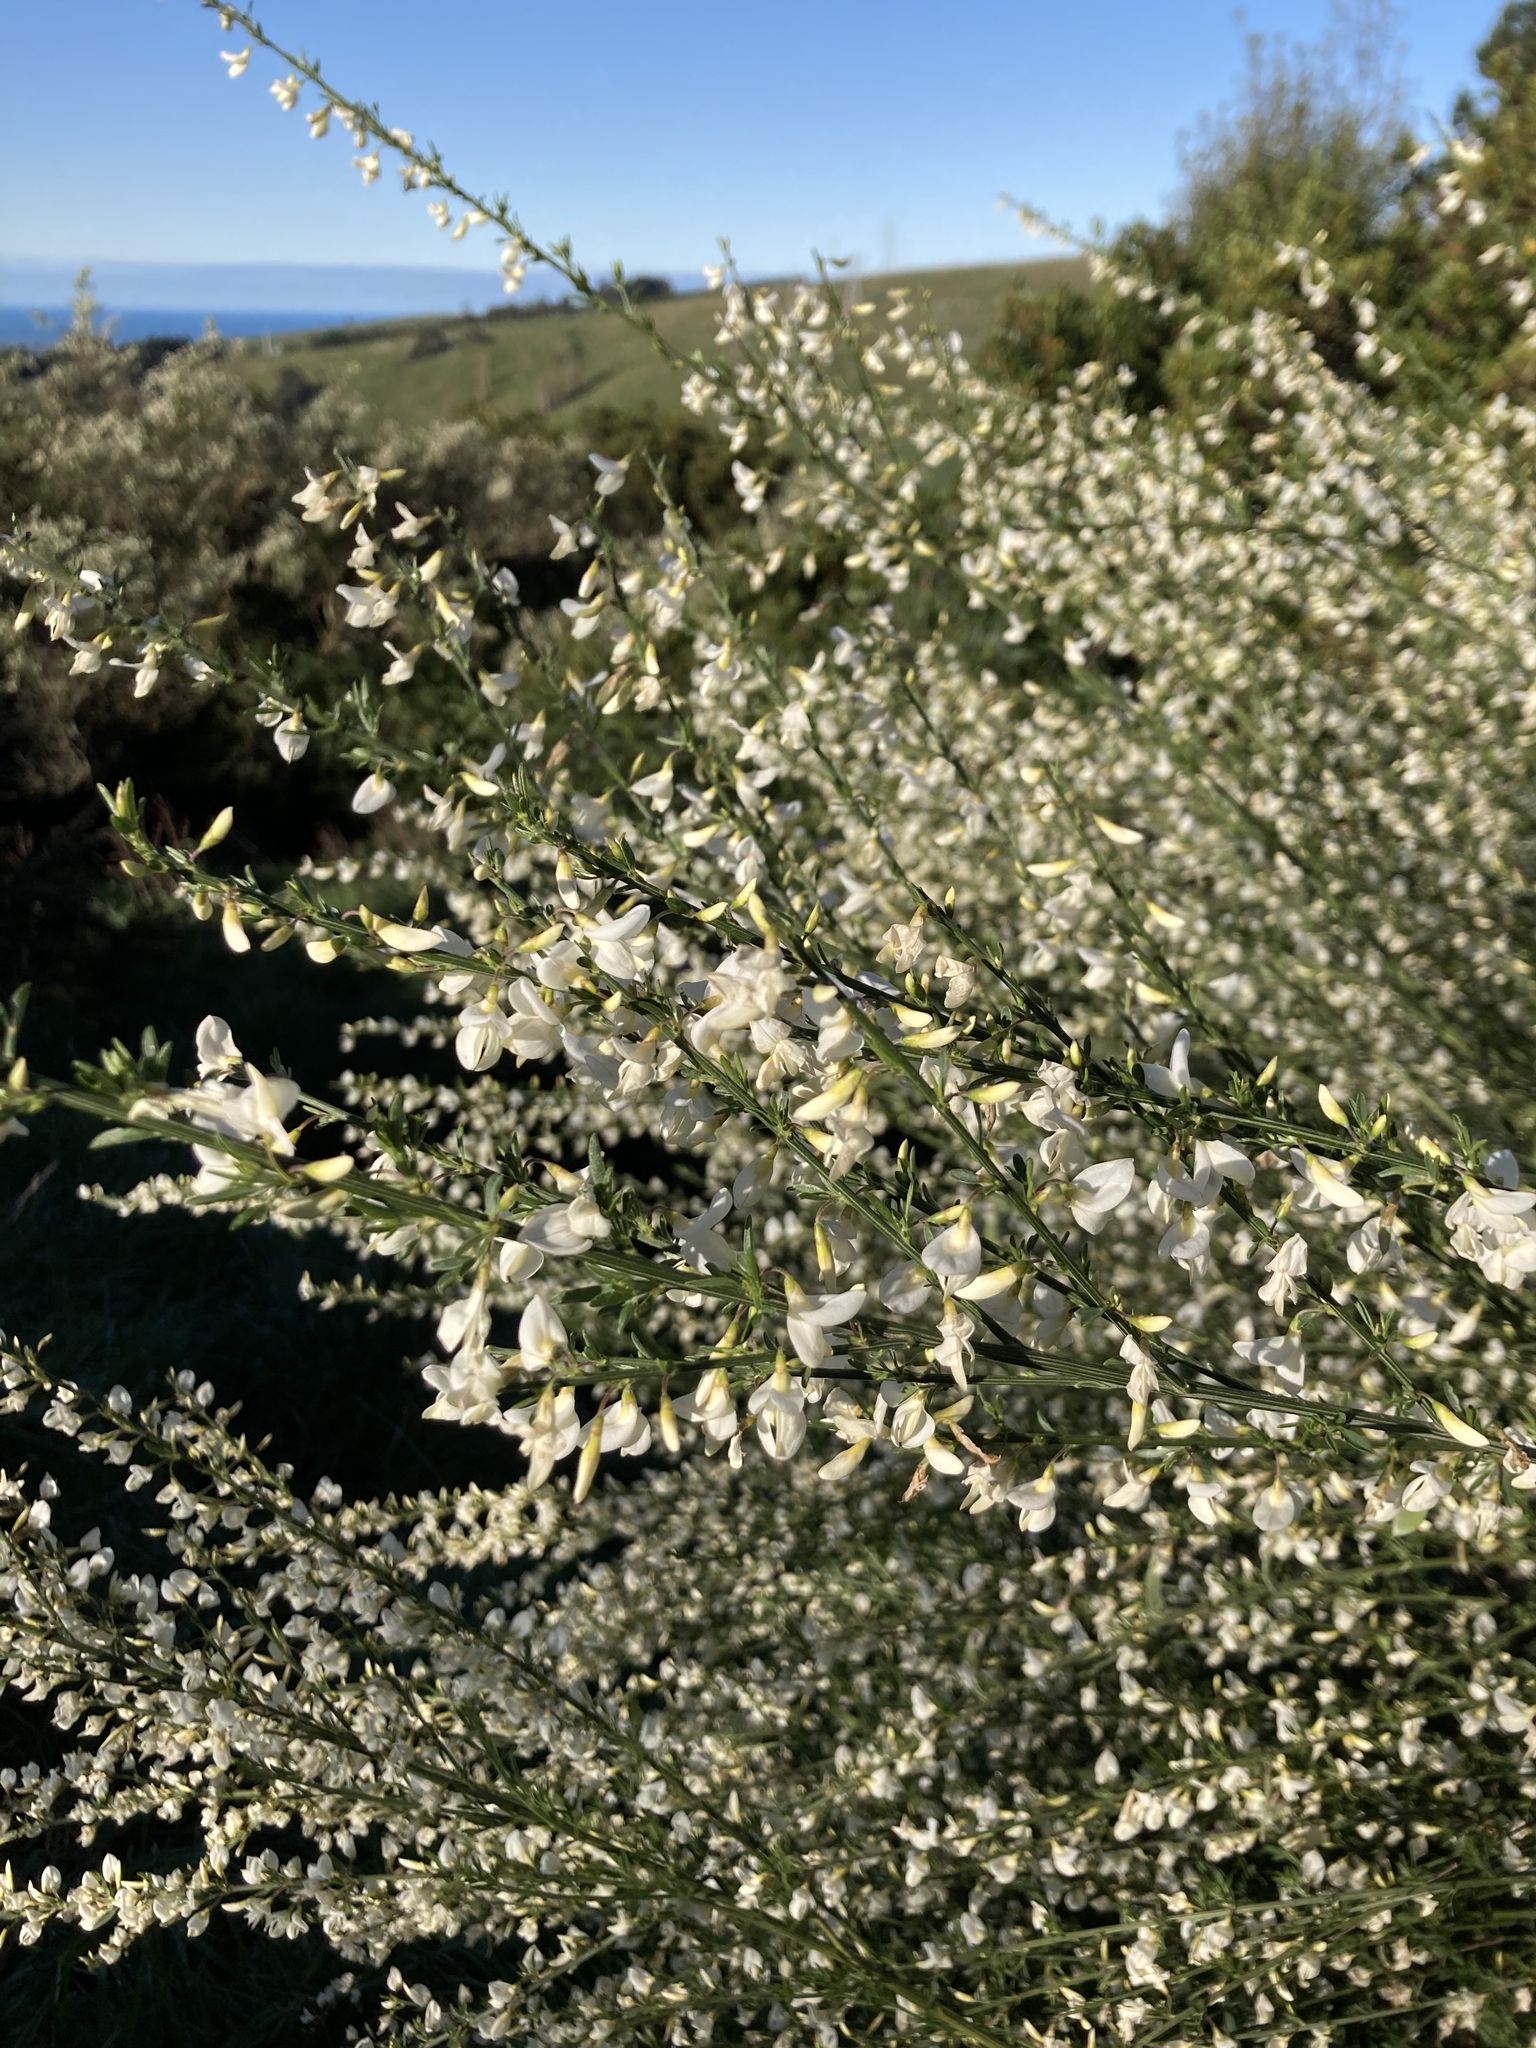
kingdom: Plantae
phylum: Tracheophyta
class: Magnoliopsida
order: Fabales
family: Fabaceae
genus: Cytisus
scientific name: Cytisus scoparius
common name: Scotch broom
